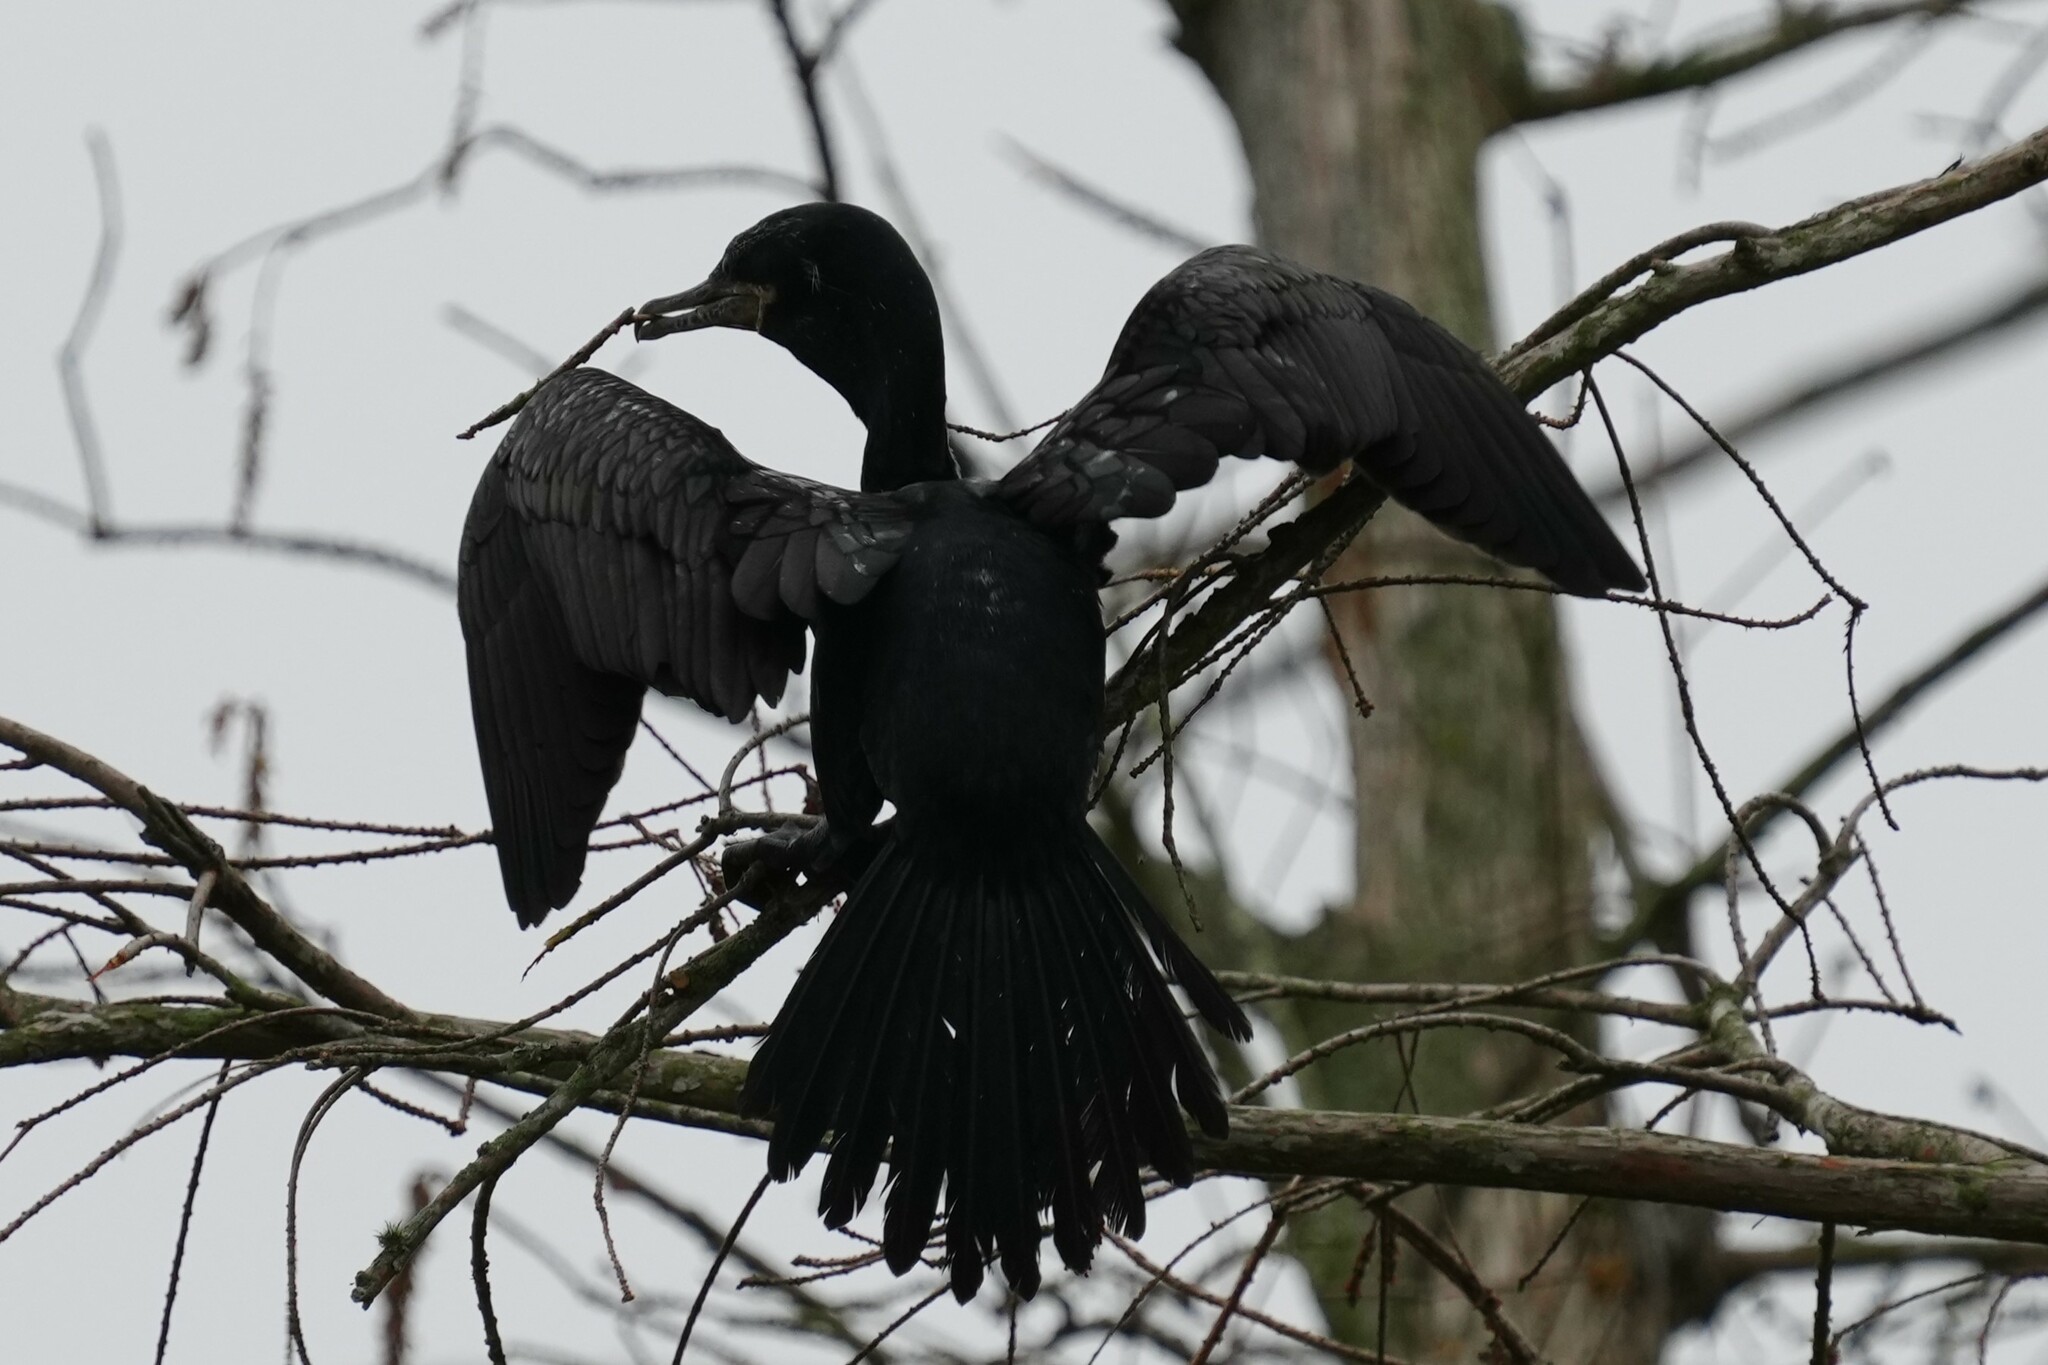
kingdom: Animalia
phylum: Chordata
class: Aves
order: Suliformes
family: Phalacrocoracidae
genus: Phalacrocorax
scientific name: Phalacrocorax brasilianus
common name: Neotropic cormorant
